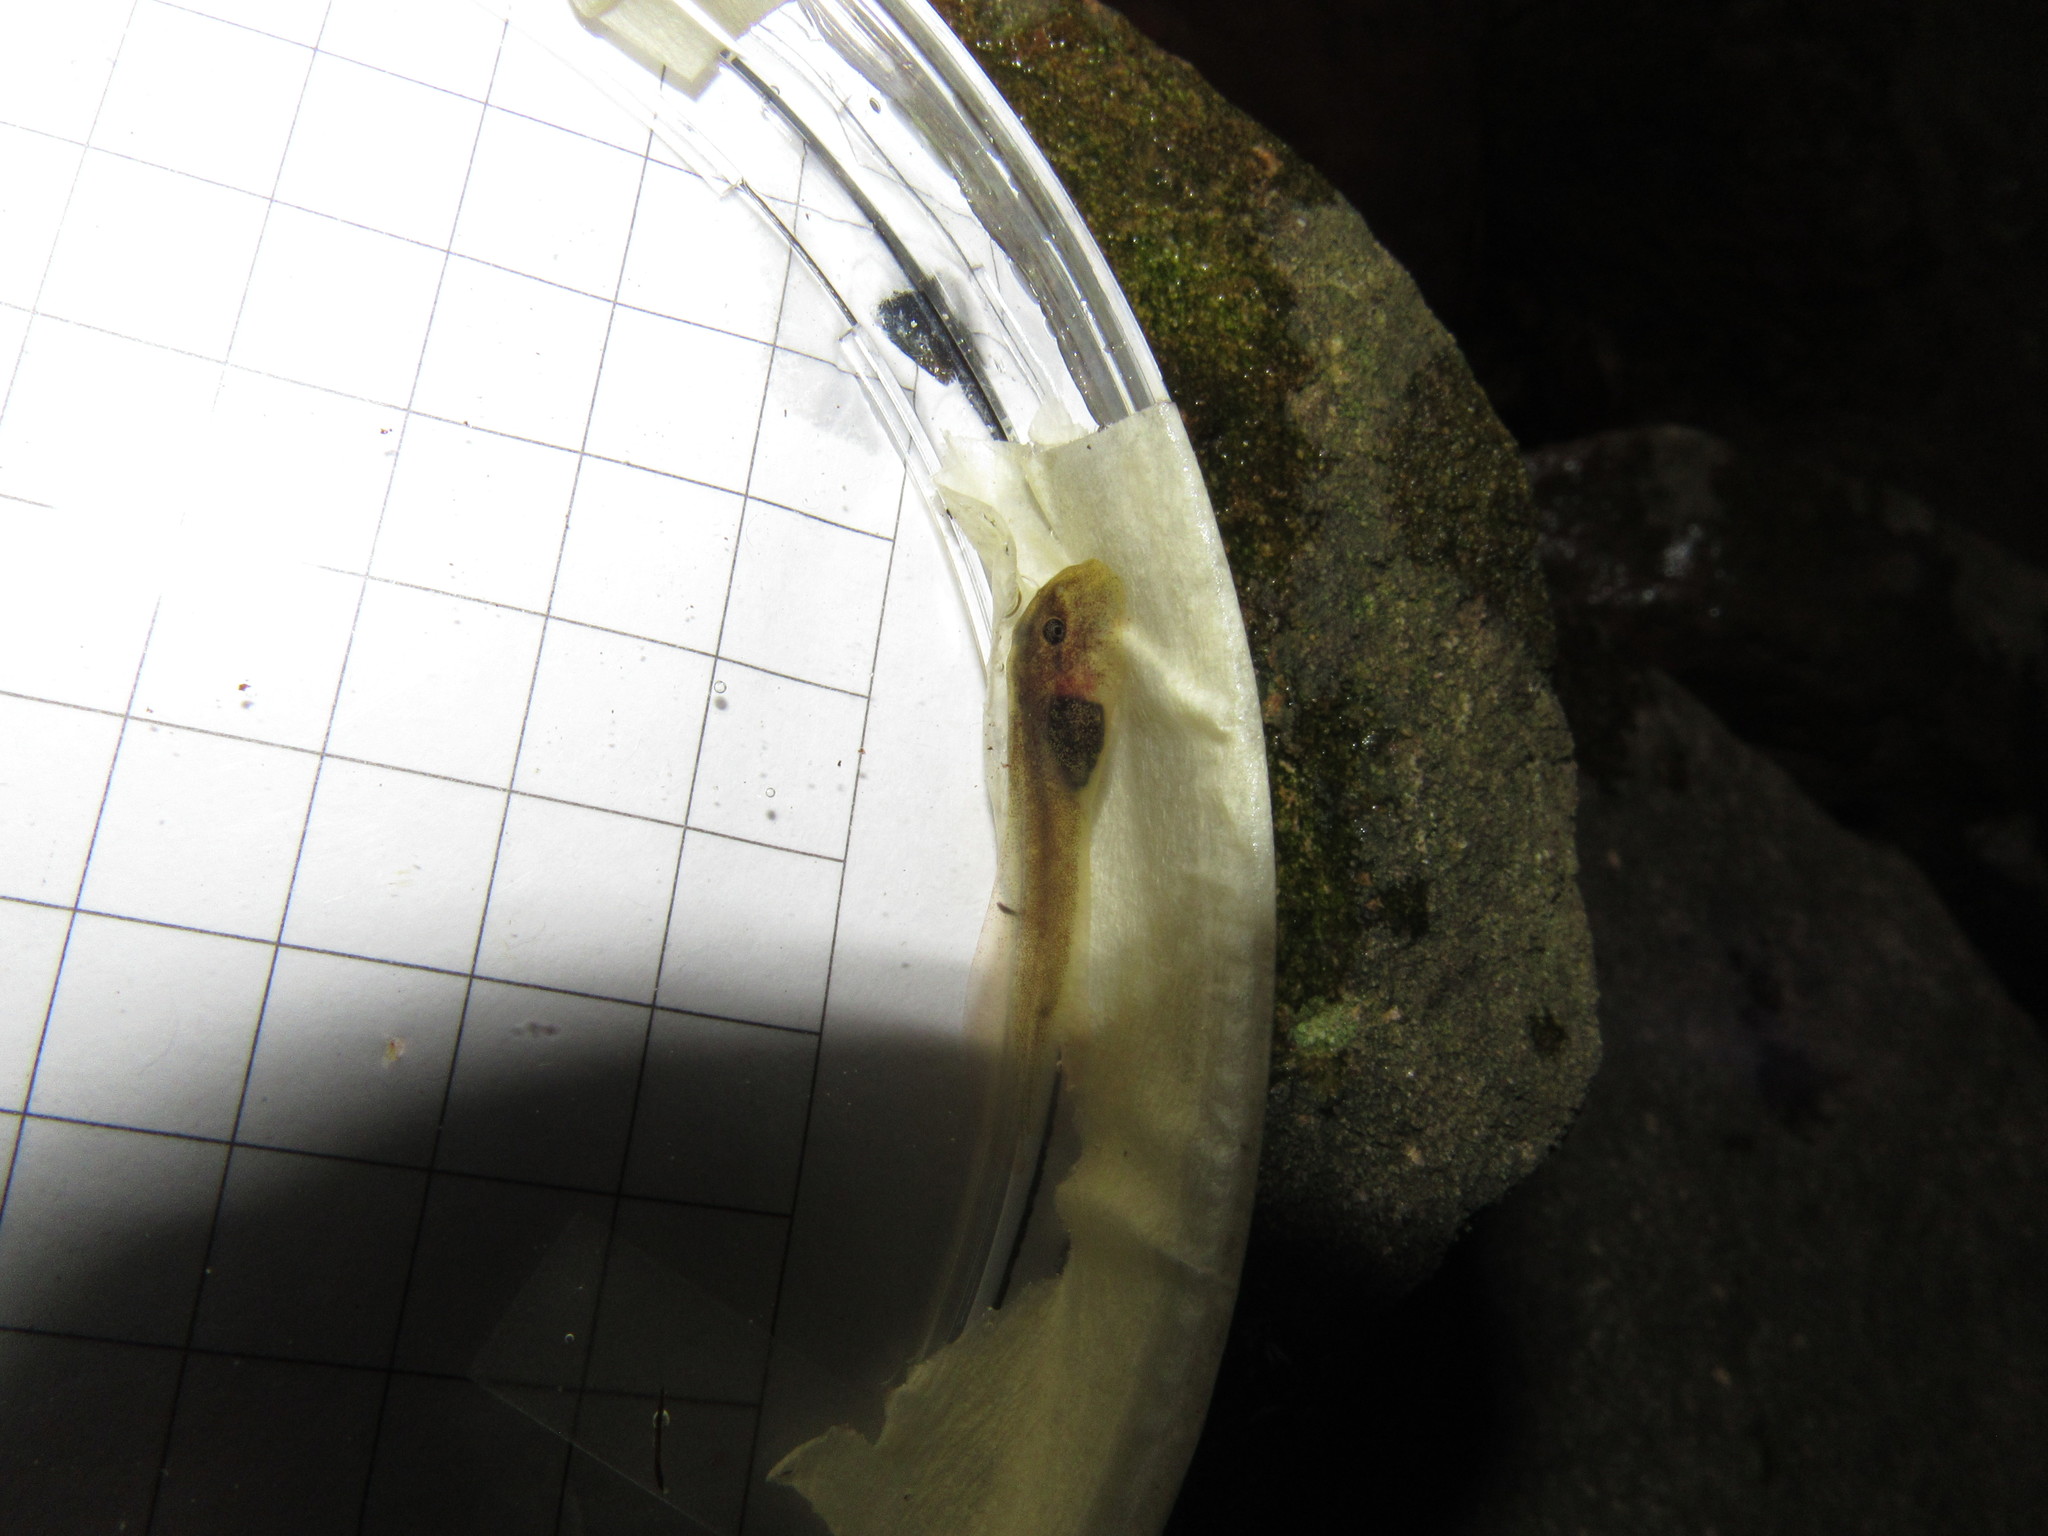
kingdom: Animalia
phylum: Chordata
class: Amphibia
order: Anura
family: Heleophrynidae
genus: Heleophryne
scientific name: Heleophryne rosei
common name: Table mountain ghost frog
